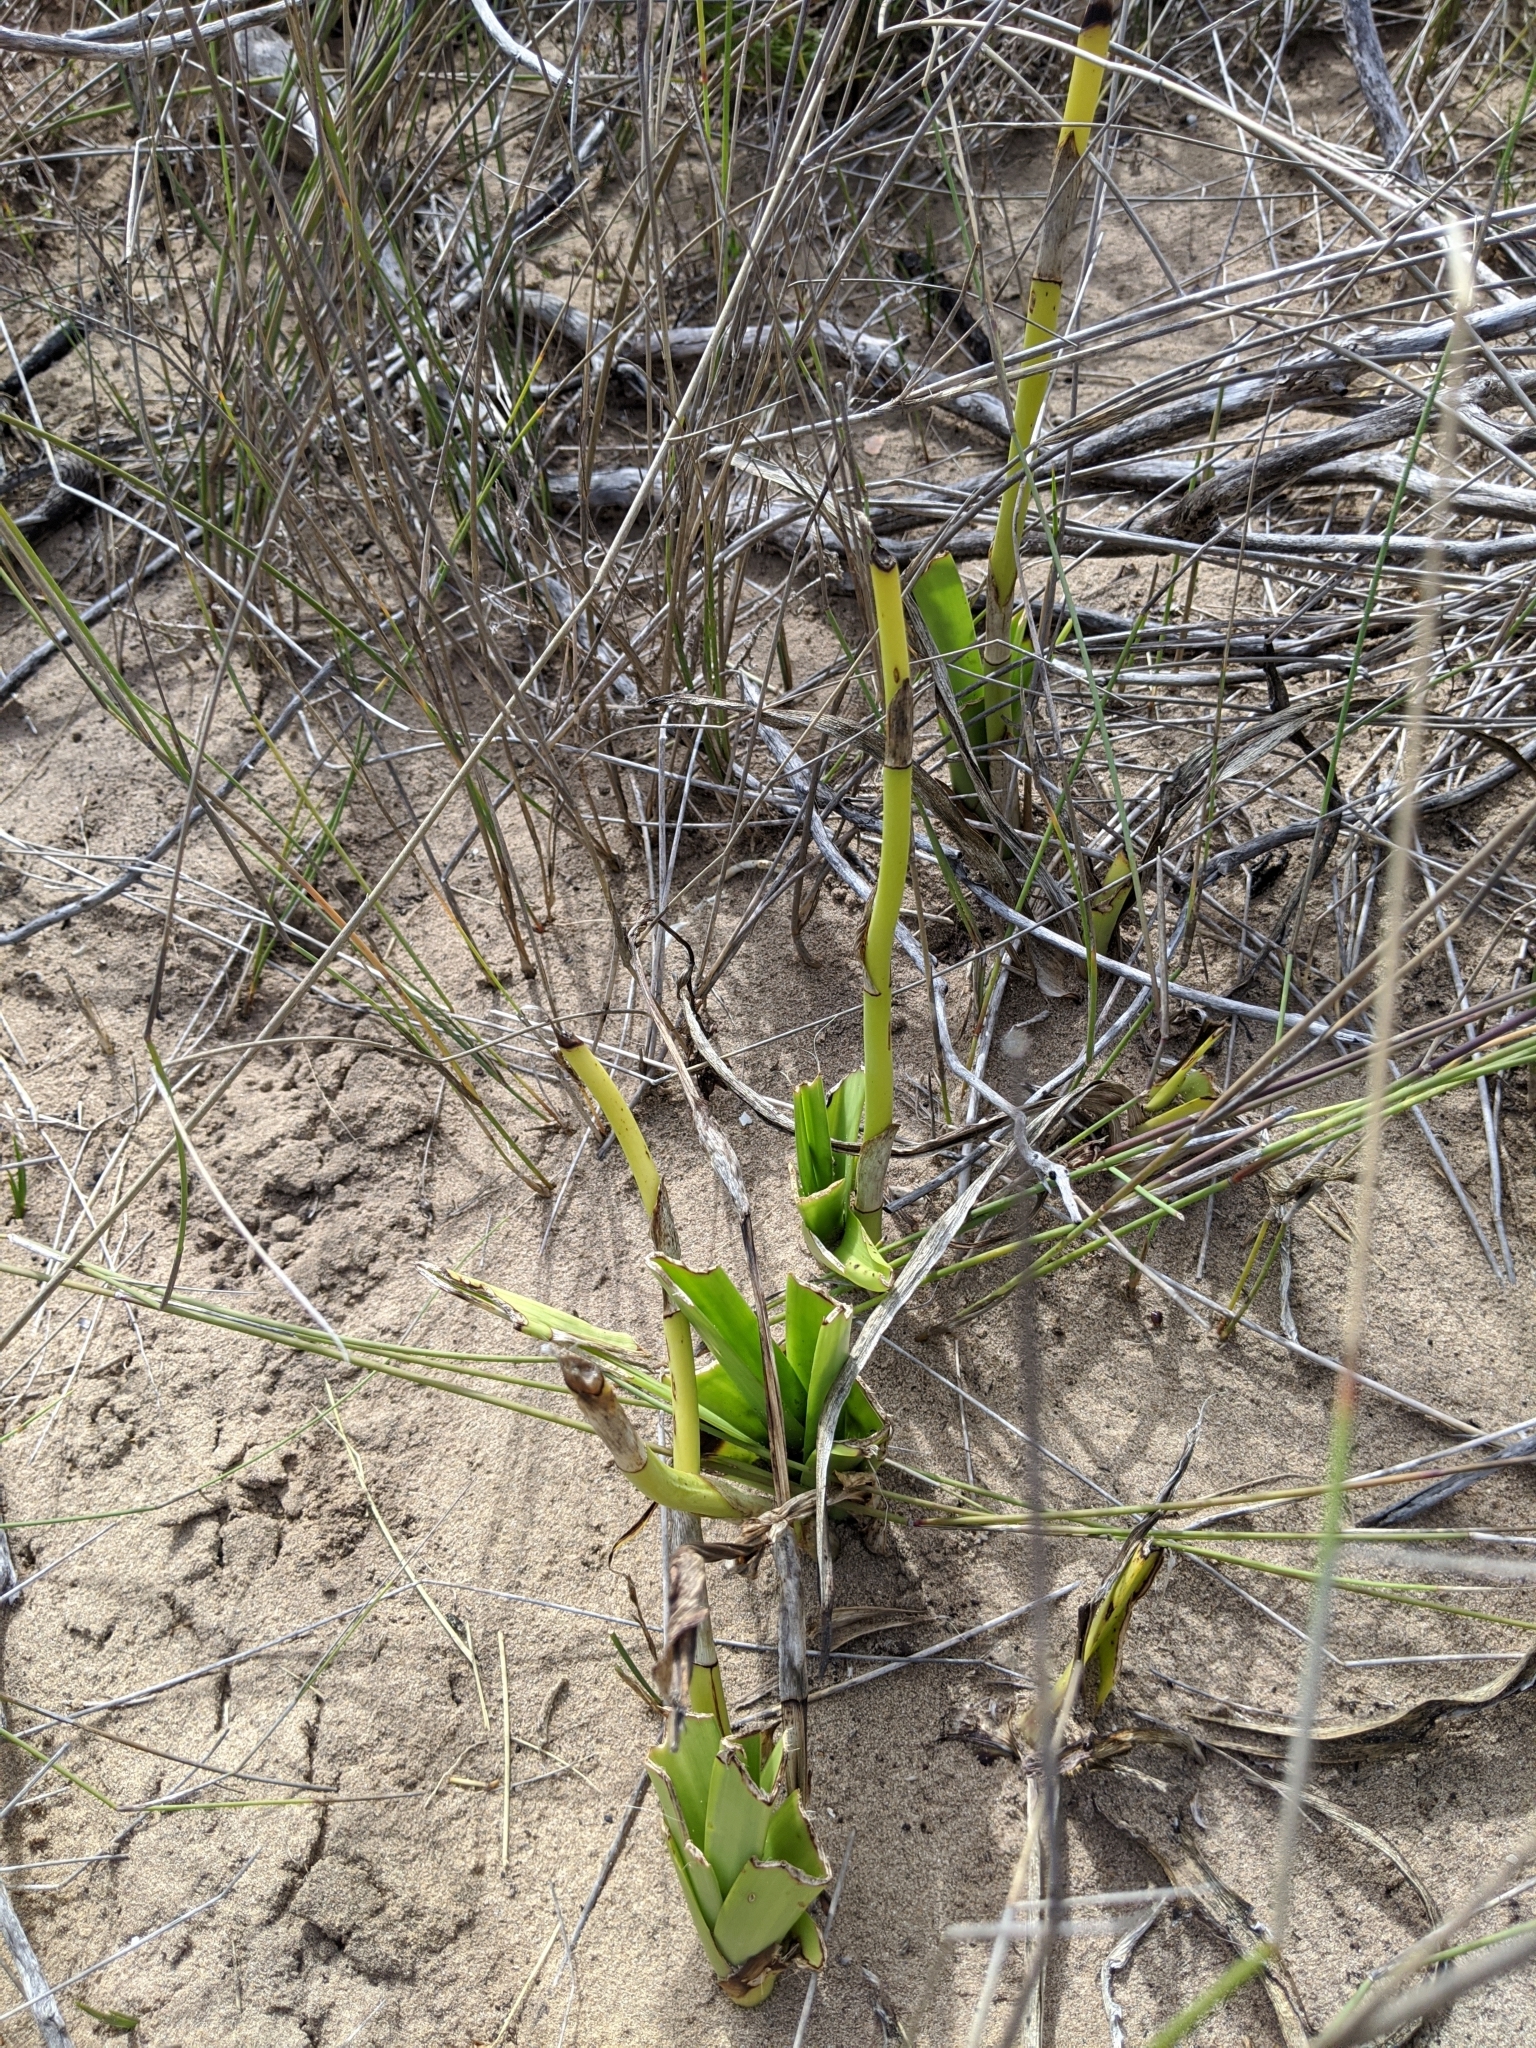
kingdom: Plantae
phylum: Tracheophyta
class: Liliopsida
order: Asparagales
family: Orchidaceae
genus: Eulophia
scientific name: Eulophia speciosa
